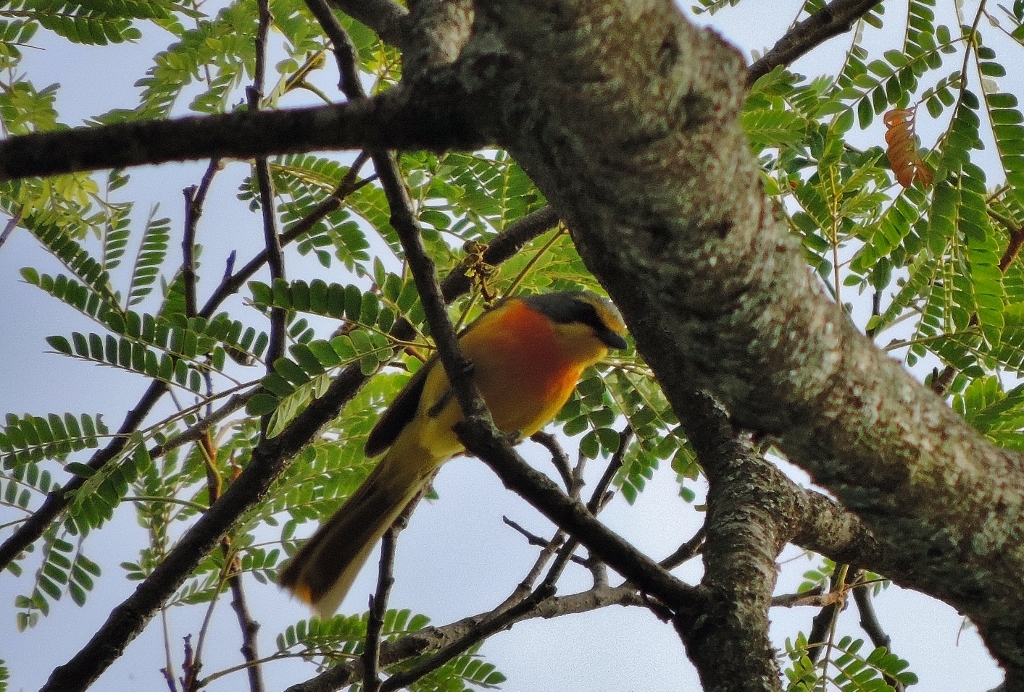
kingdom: Animalia
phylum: Chordata
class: Aves
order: Passeriformes
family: Malaconotidae
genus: Chlorophoneus
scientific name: Chlorophoneus sulfureopectus
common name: Orange-breasted bushshrike
